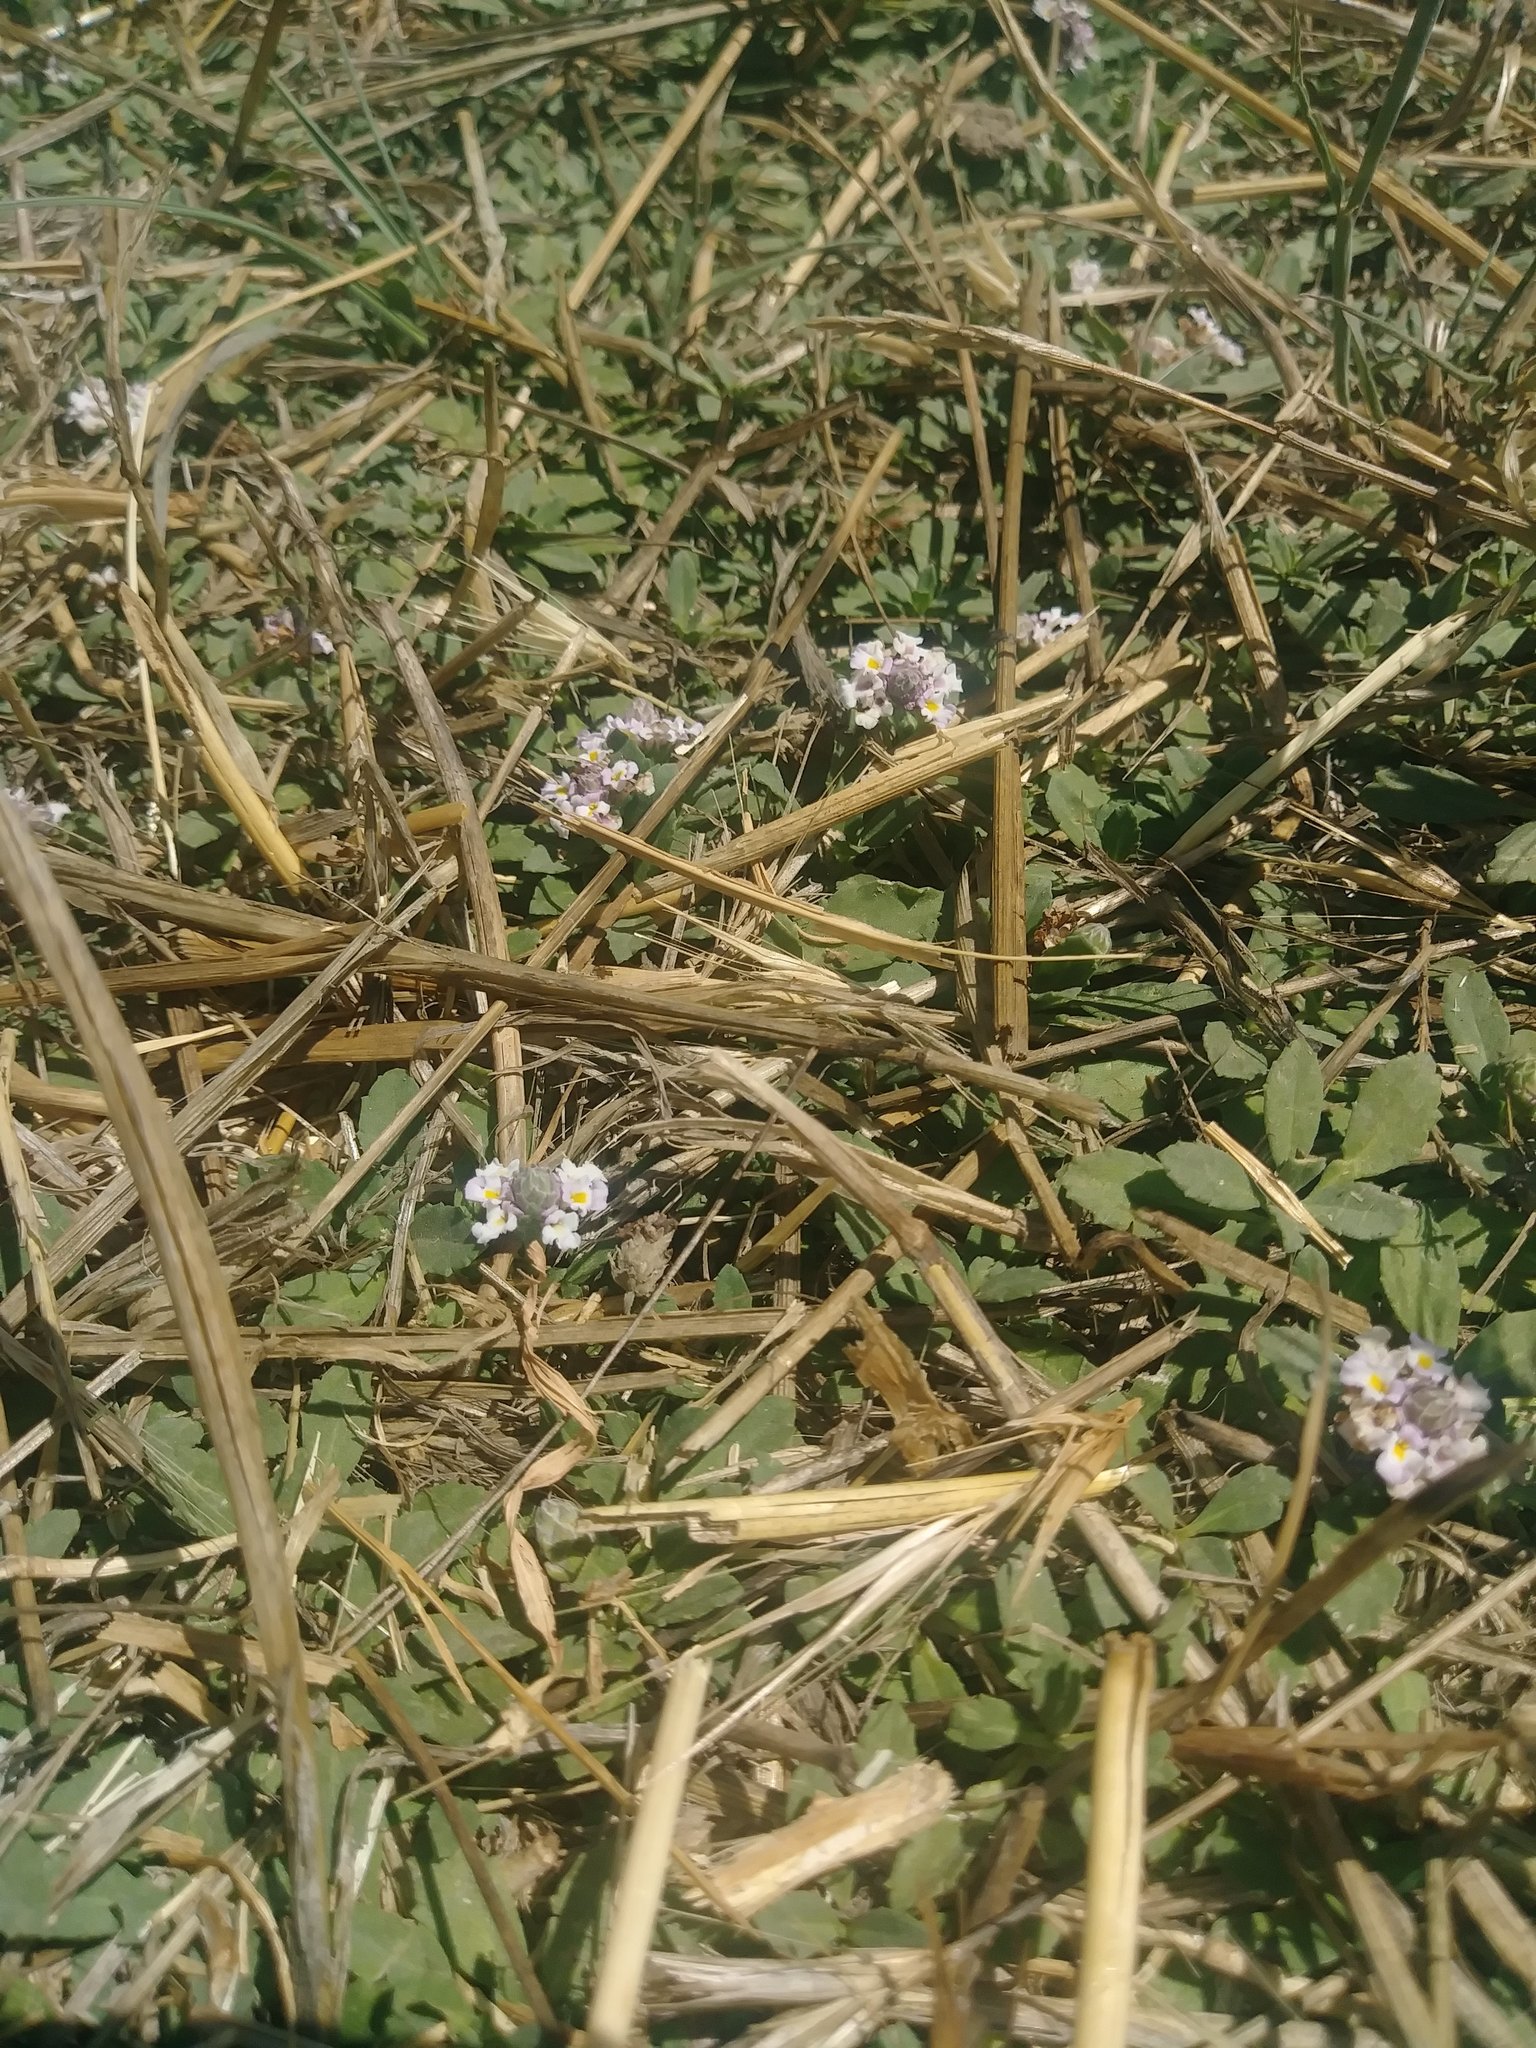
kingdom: Plantae
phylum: Tracheophyta
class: Magnoliopsida
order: Lamiales
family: Verbenaceae
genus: Phyla
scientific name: Phyla nodiflora
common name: Frogfruit
